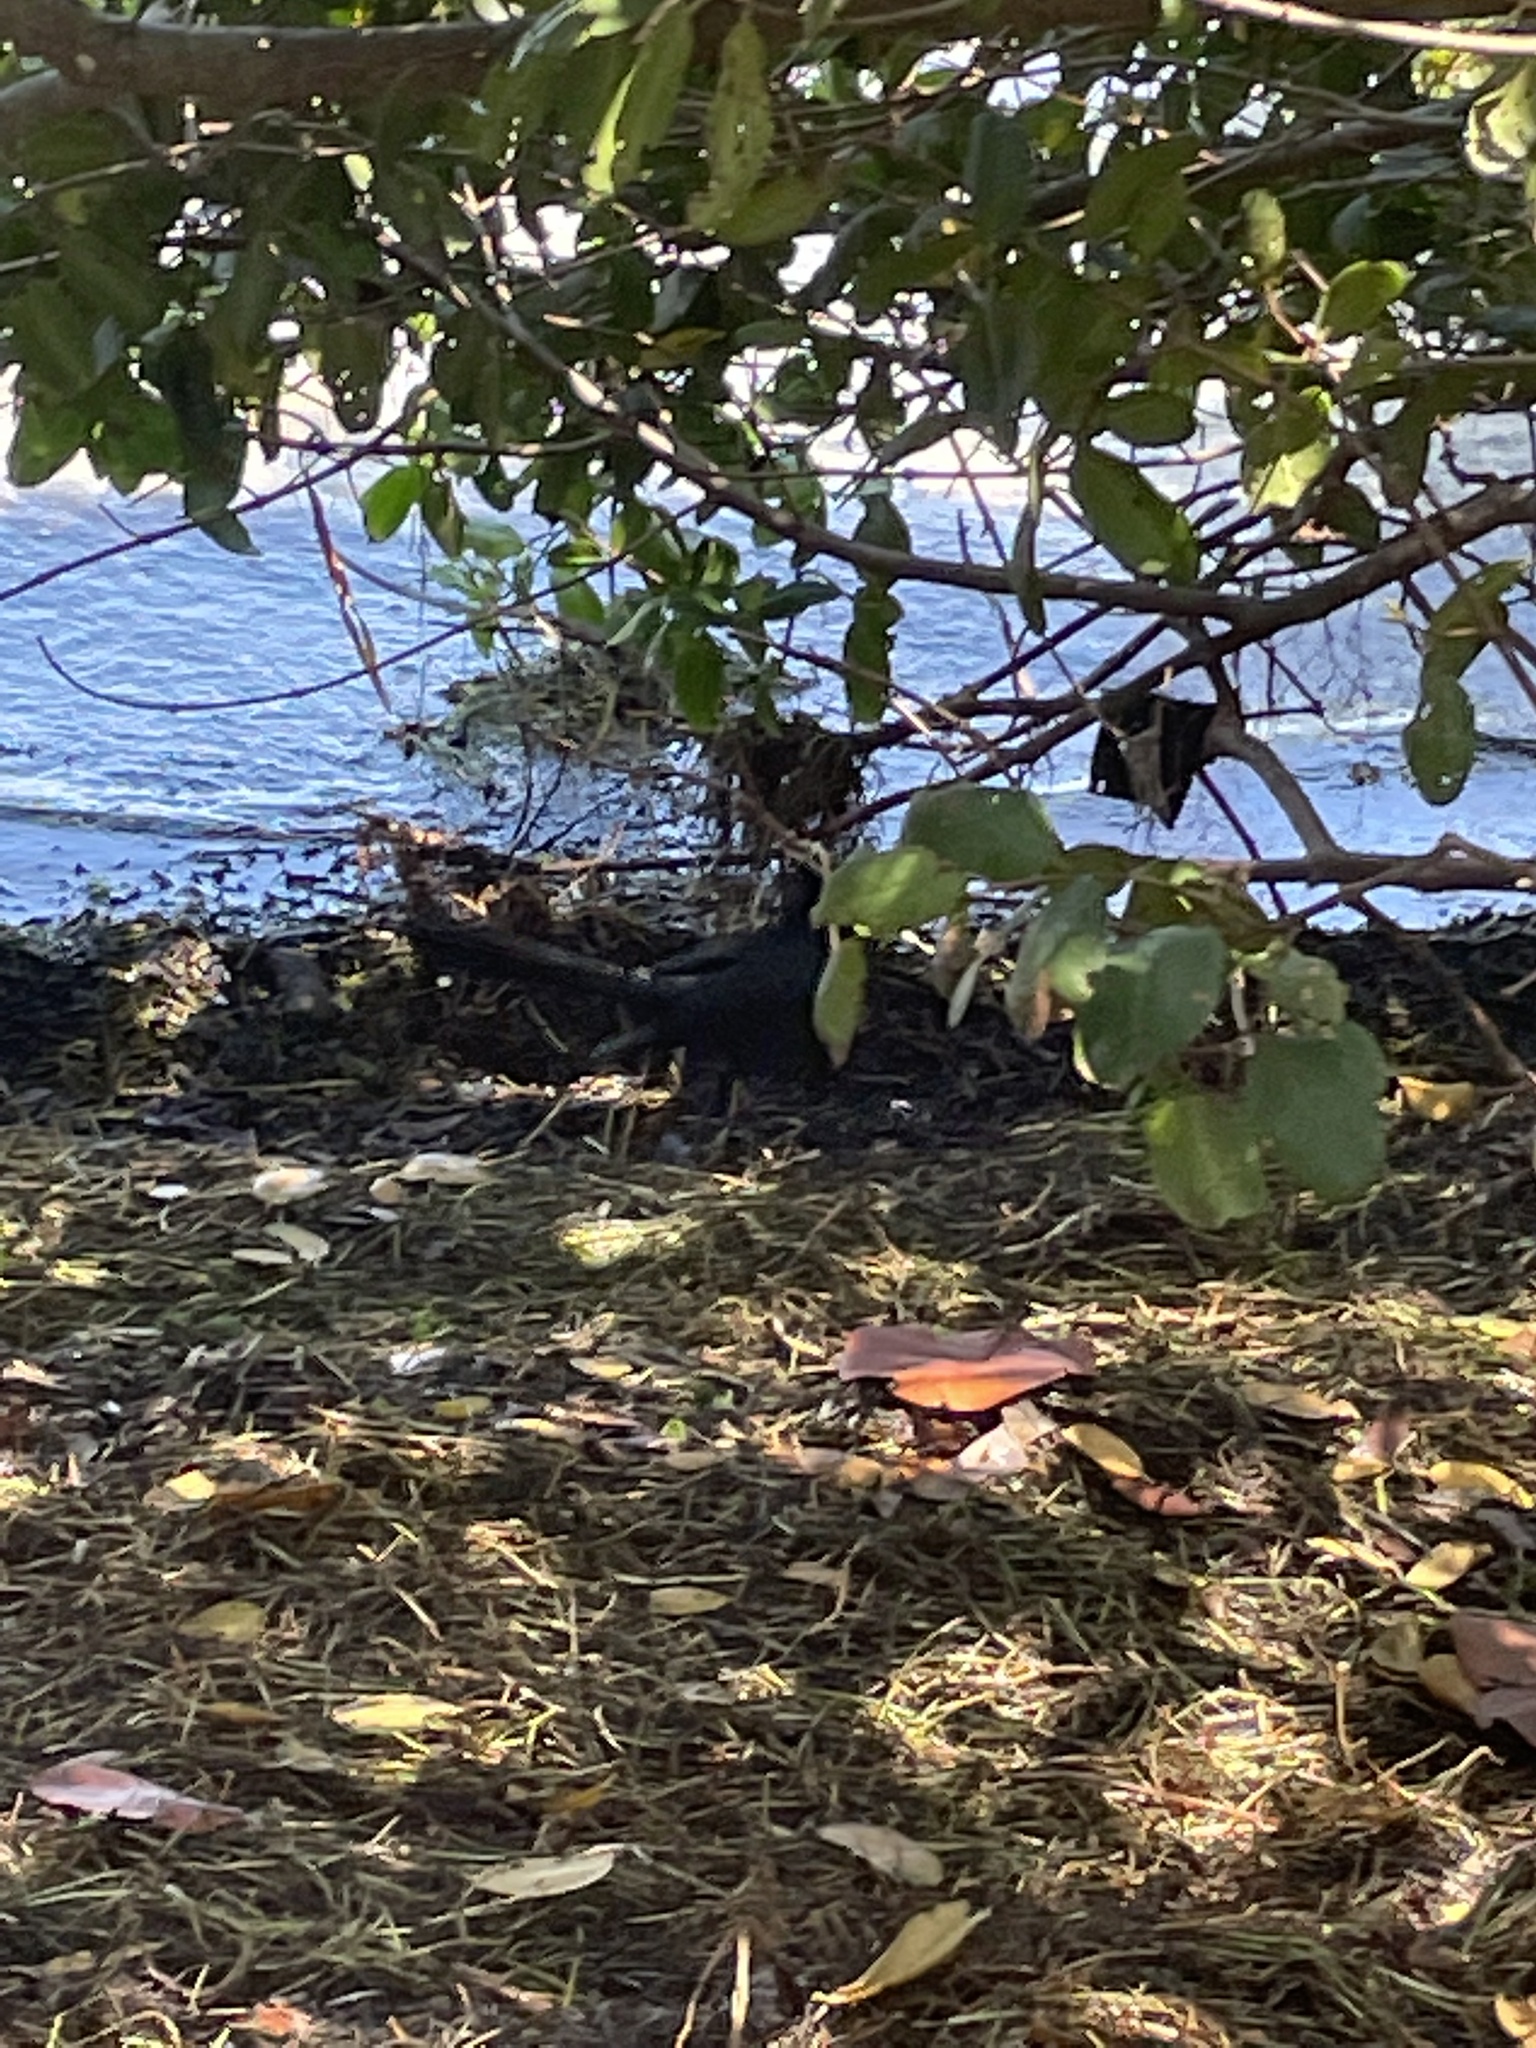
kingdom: Animalia
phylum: Chordata
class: Aves
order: Passeriformes
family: Icteridae
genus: Quiscalus
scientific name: Quiscalus major
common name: Boat-tailed grackle
